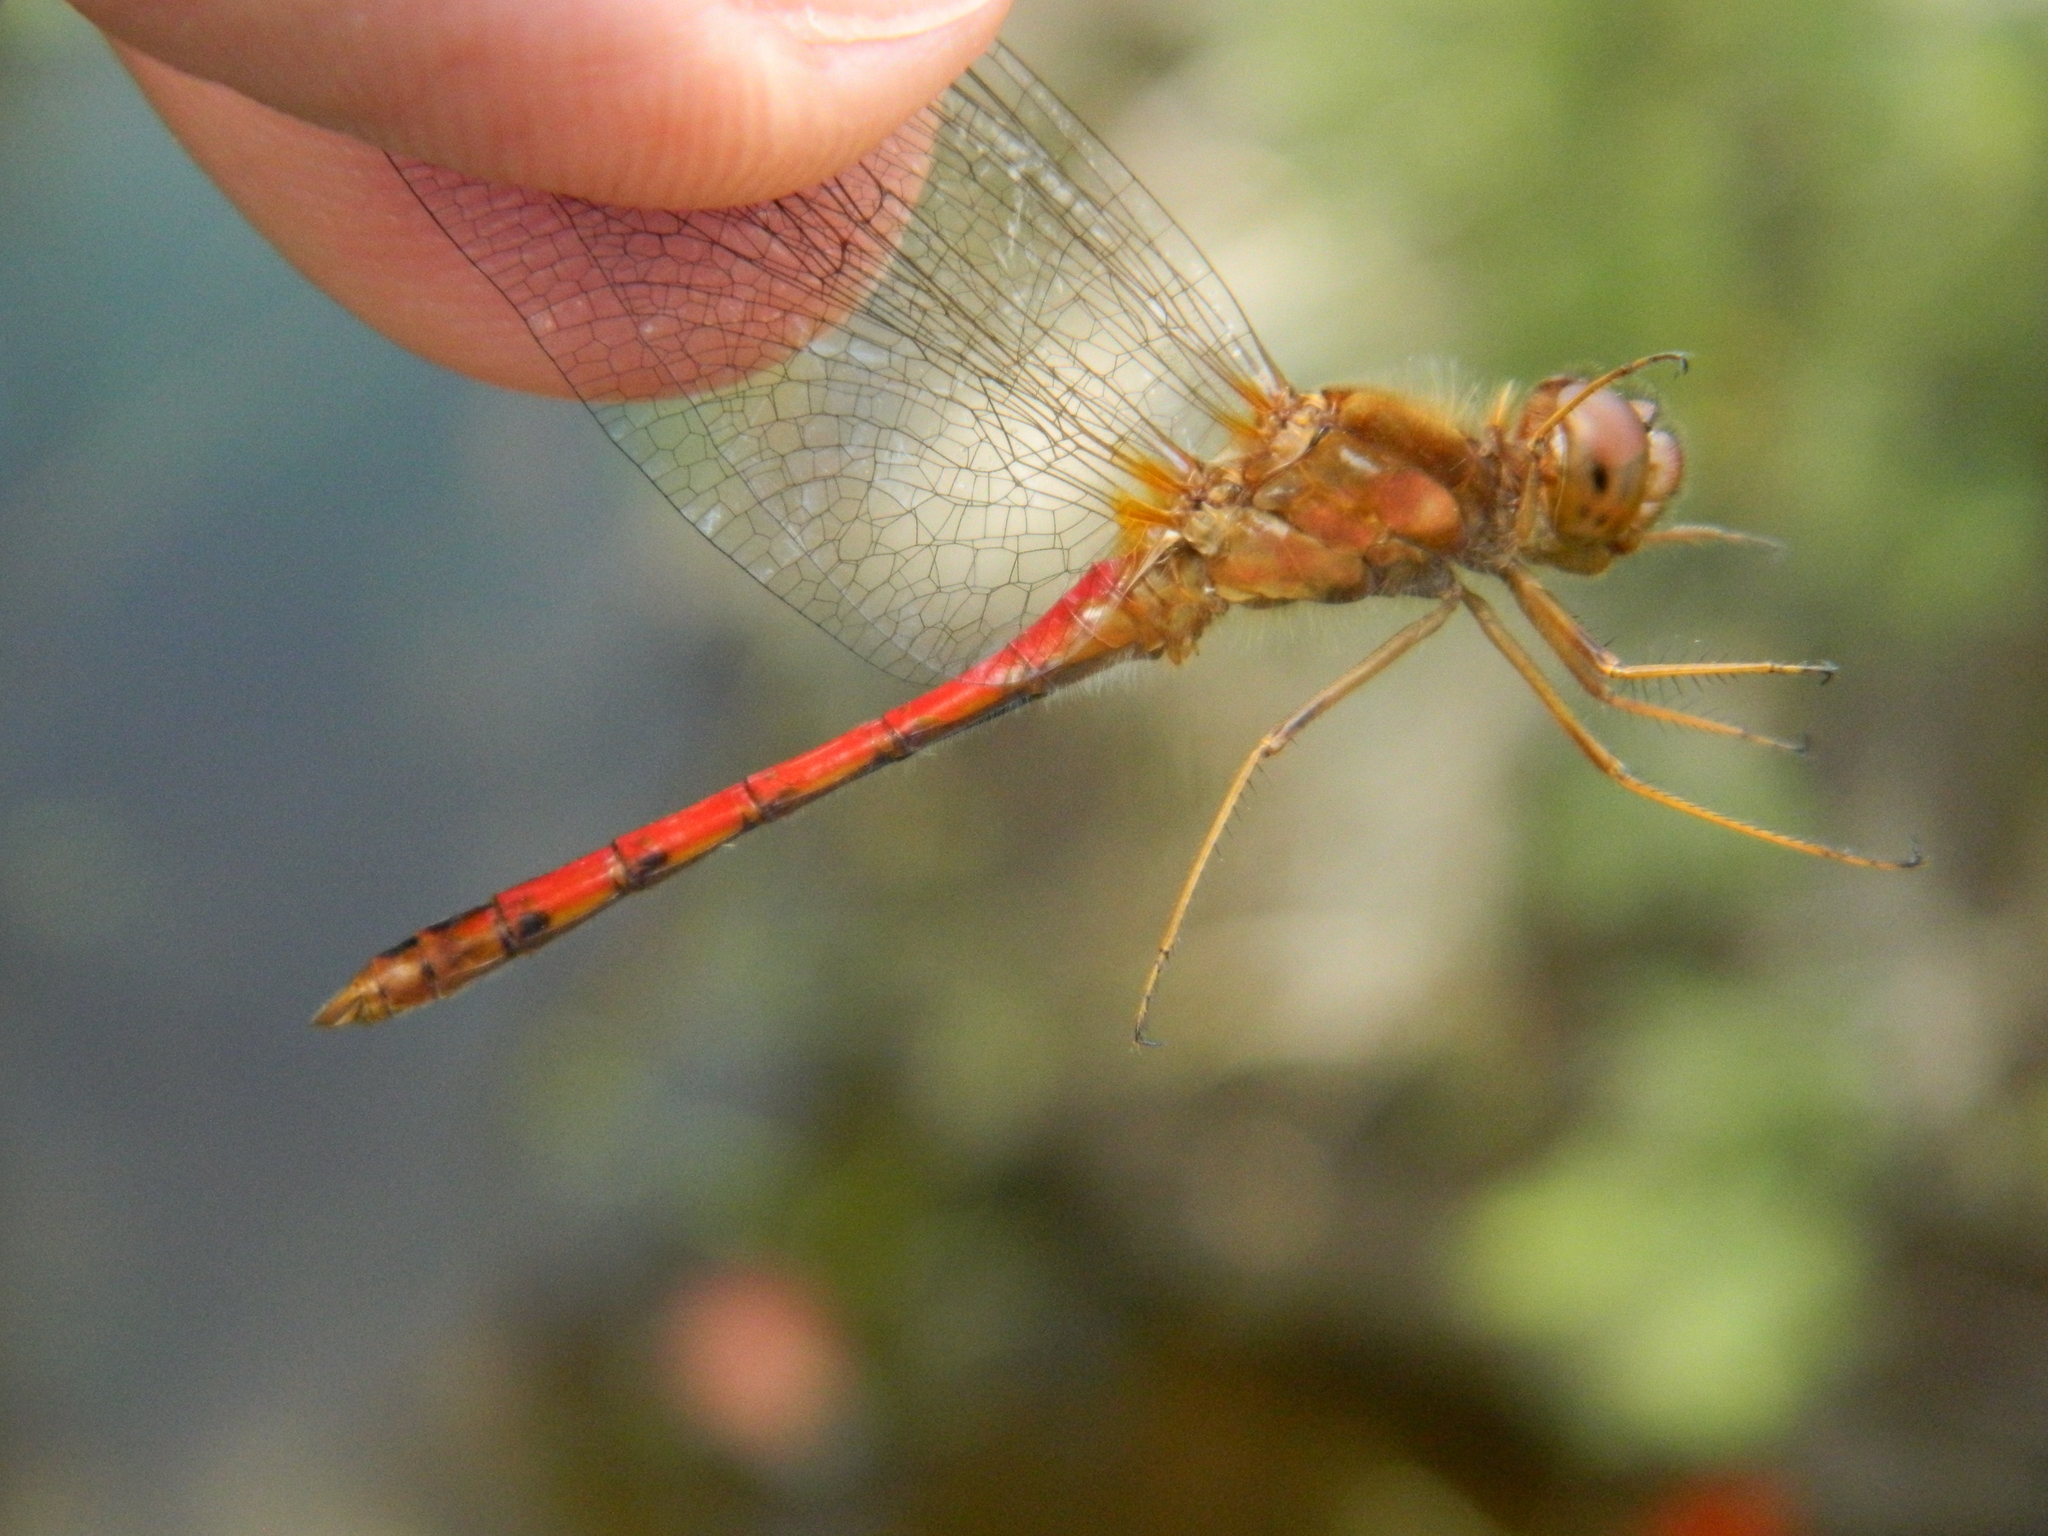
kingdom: Animalia
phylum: Arthropoda
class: Insecta
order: Odonata
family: Libellulidae
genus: Sympetrum
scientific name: Sympetrum vicinum
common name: Autumn meadowhawk
